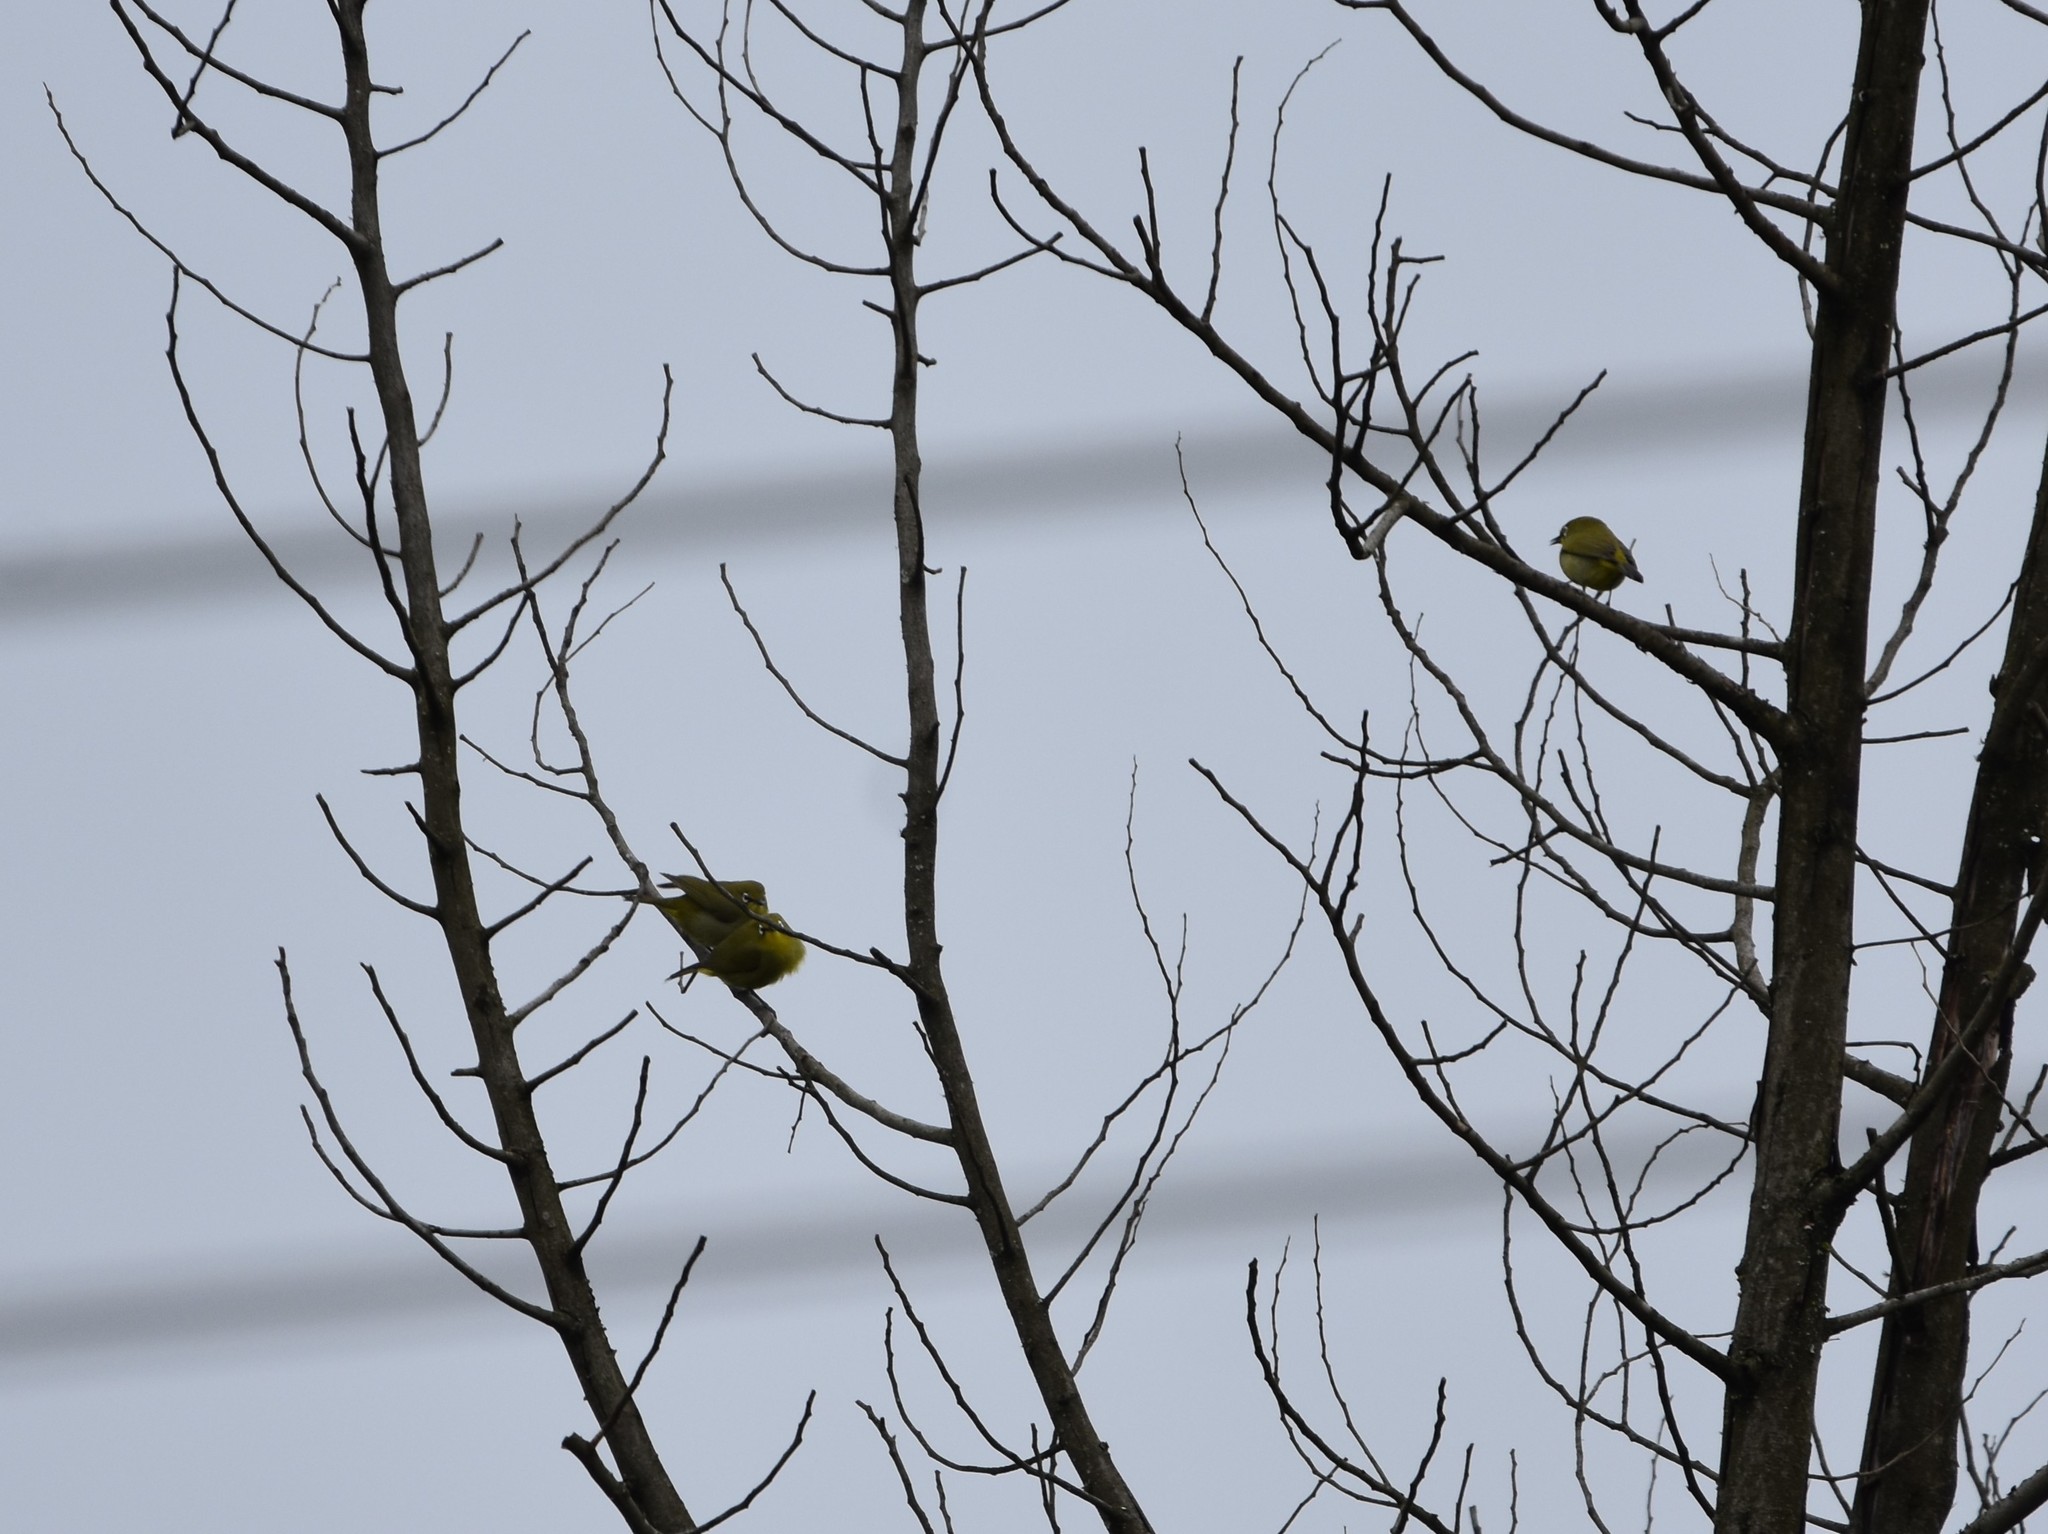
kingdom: Animalia
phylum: Chordata
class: Aves
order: Passeriformes
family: Zosteropidae
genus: Zosterops
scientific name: Zosterops virens
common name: Cape white-eye
